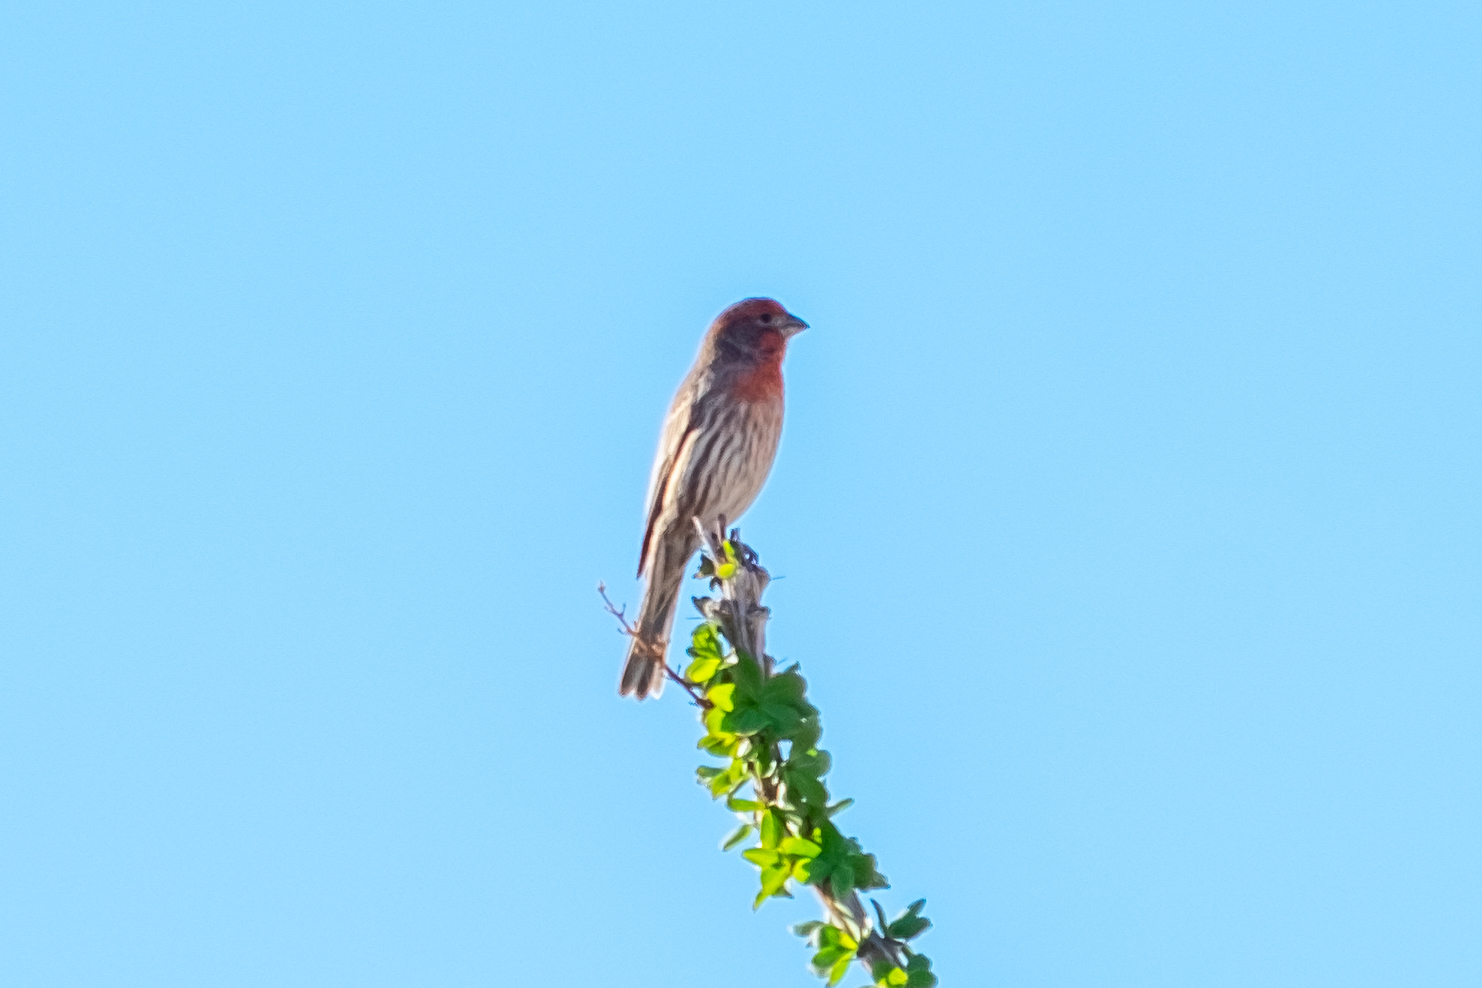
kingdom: Animalia
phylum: Chordata
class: Aves
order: Passeriformes
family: Fringillidae
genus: Haemorhous
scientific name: Haemorhous mexicanus
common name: House finch
